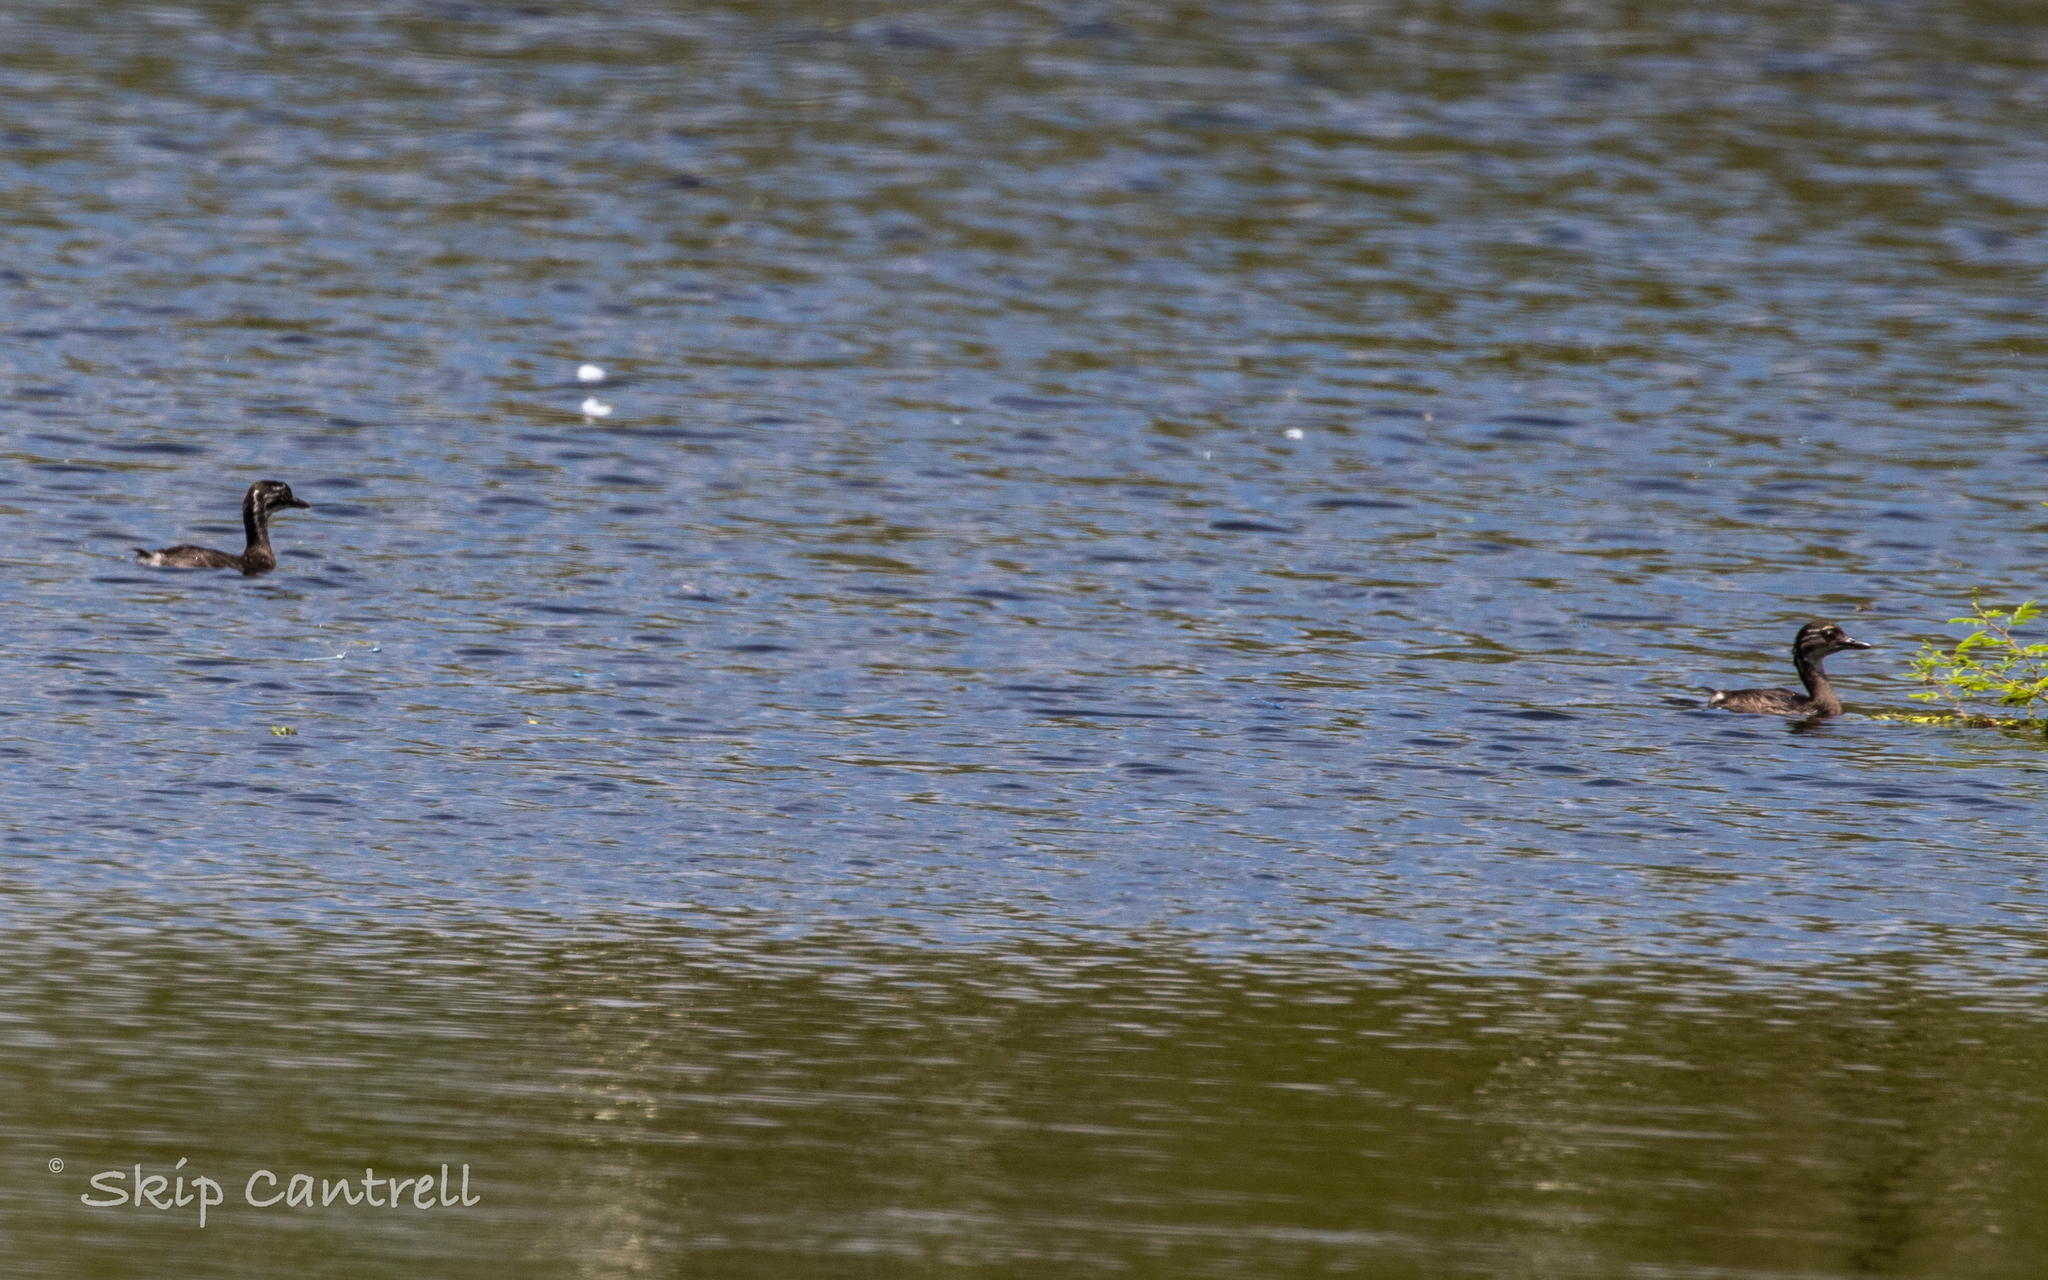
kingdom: Animalia
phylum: Chordata
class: Aves
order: Podicipediformes
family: Podicipedidae
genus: Tachybaptus
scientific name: Tachybaptus dominicus
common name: Least grebe
